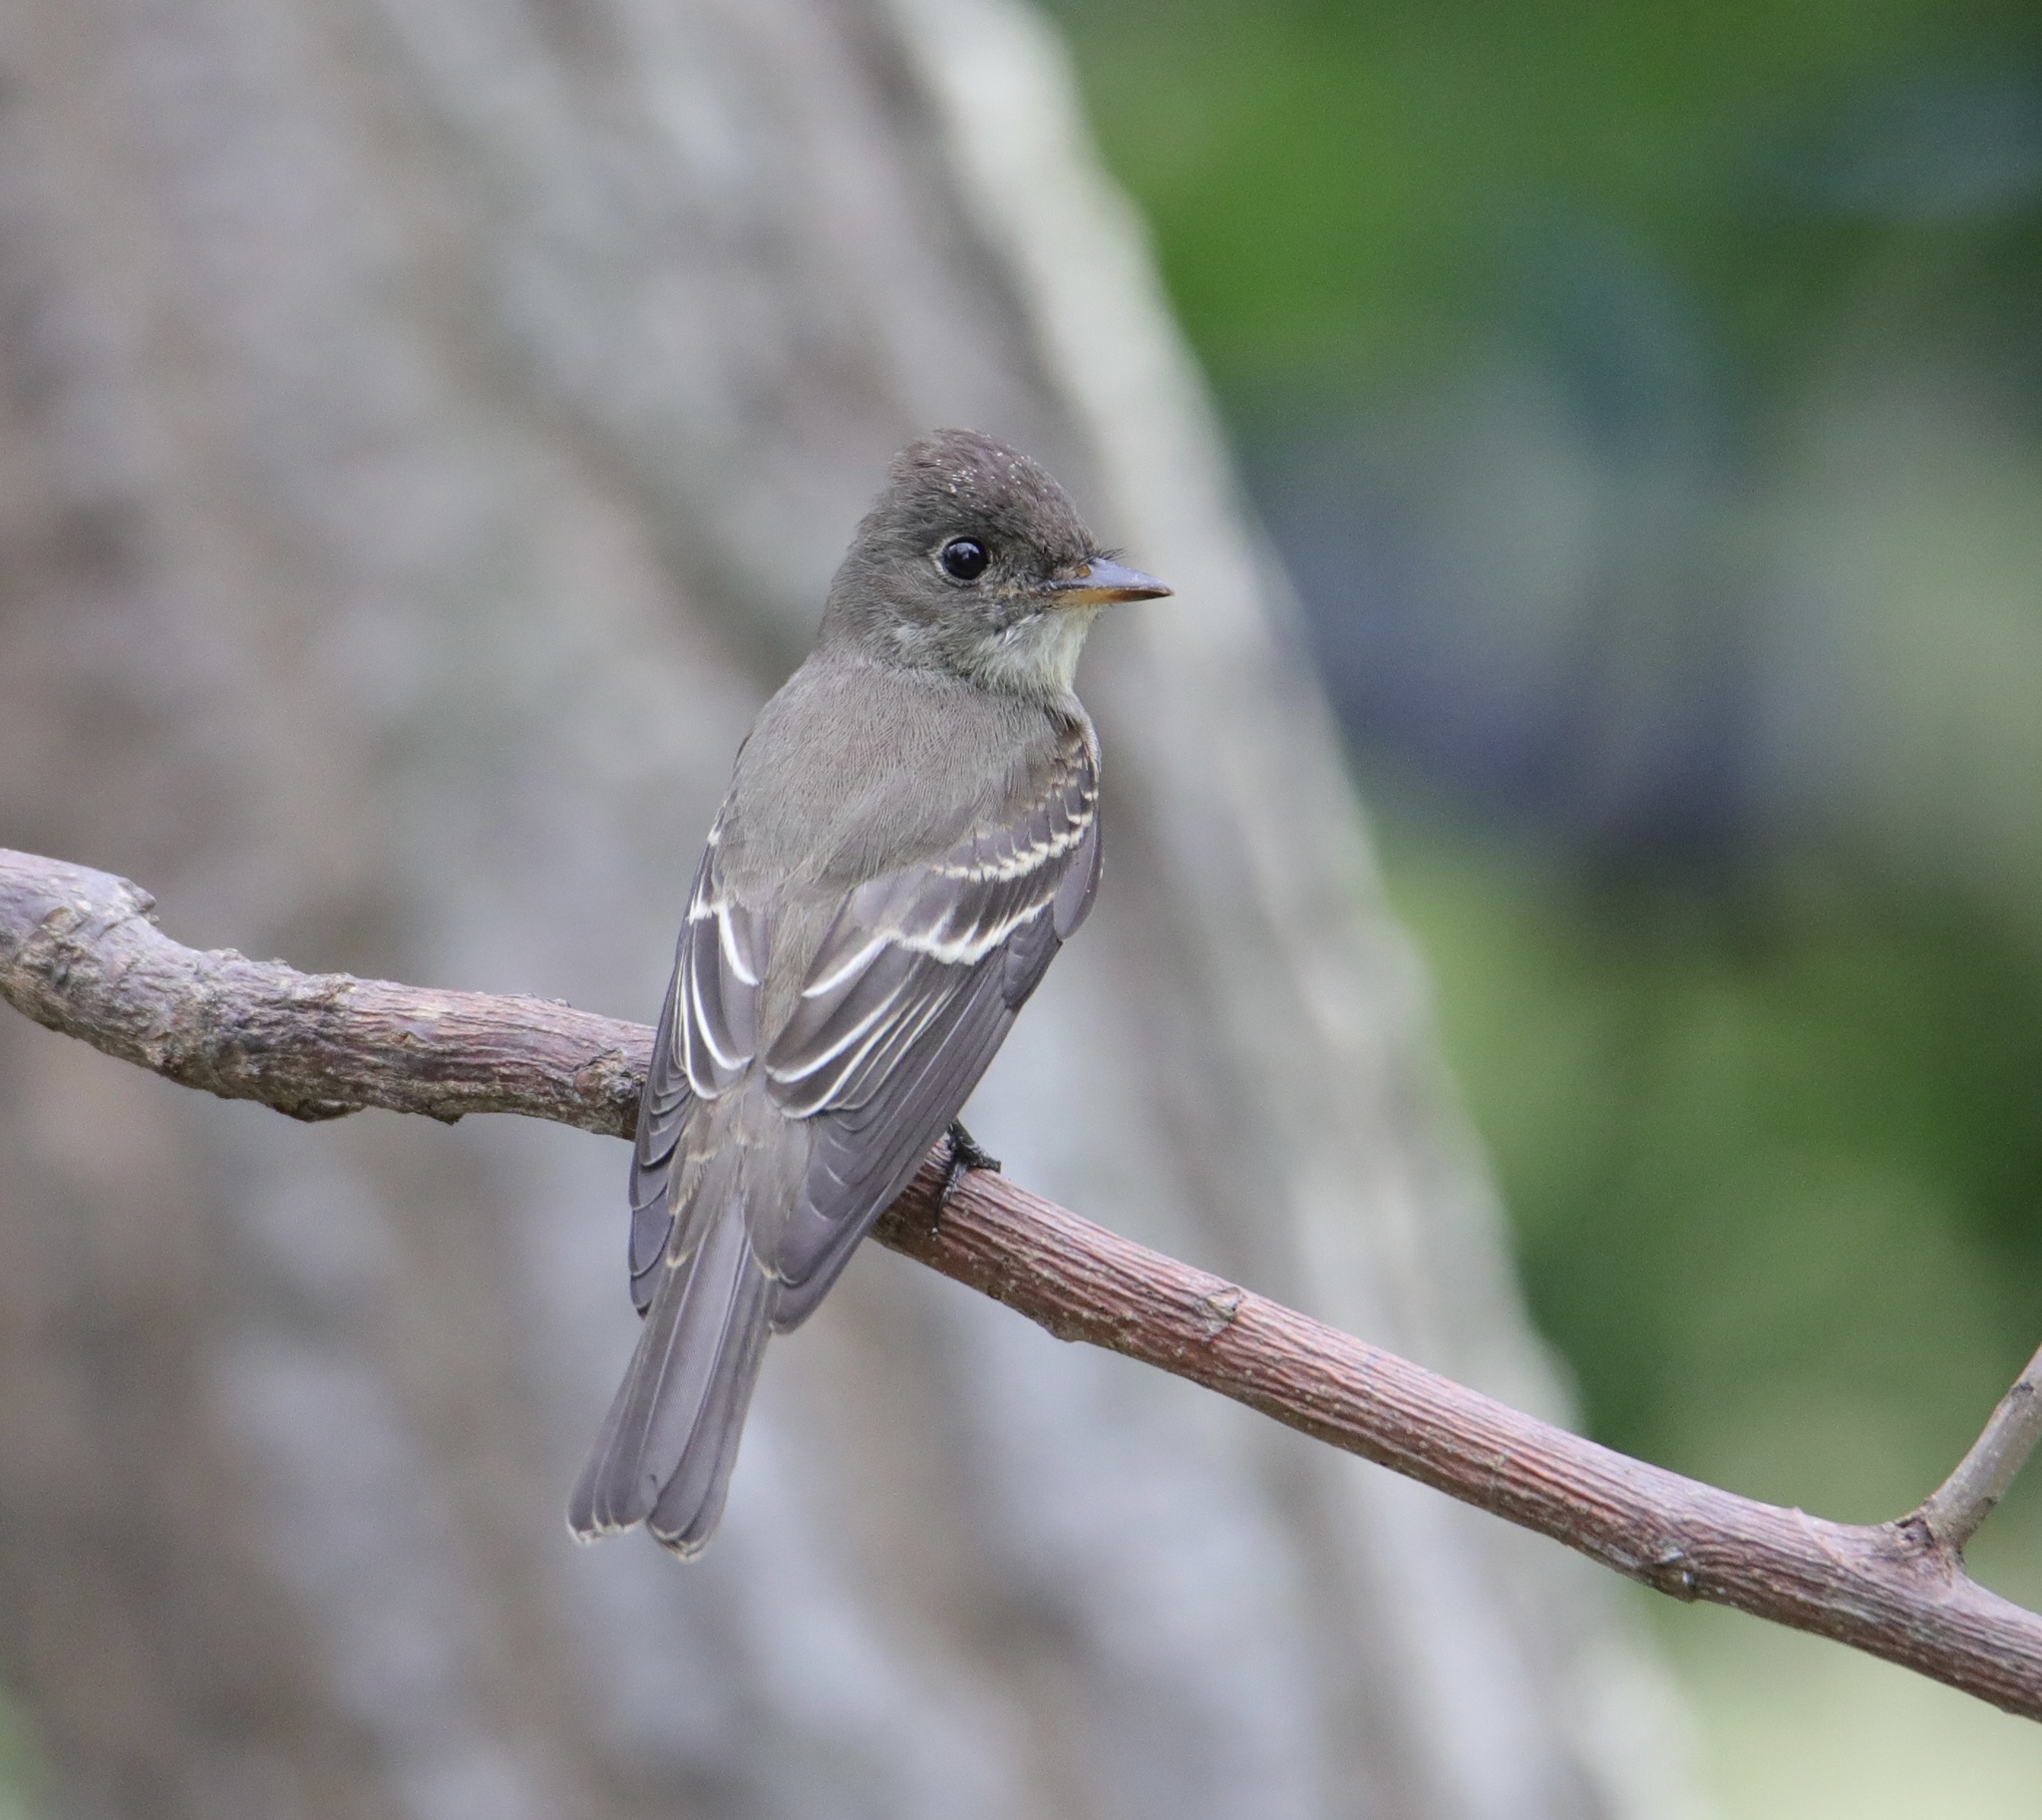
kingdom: Animalia
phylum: Chordata
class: Aves
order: Passeriformes
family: Tyrannidae
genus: Contopus
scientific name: Contopus virens
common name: Eastern wood-pewee
